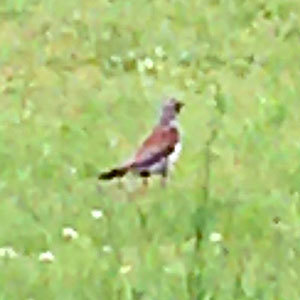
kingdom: Animalia
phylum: Chordata
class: Aves
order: Passeriformes
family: Turdidae
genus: Turdus
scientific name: Turdus pilaris
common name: Fieldfare
